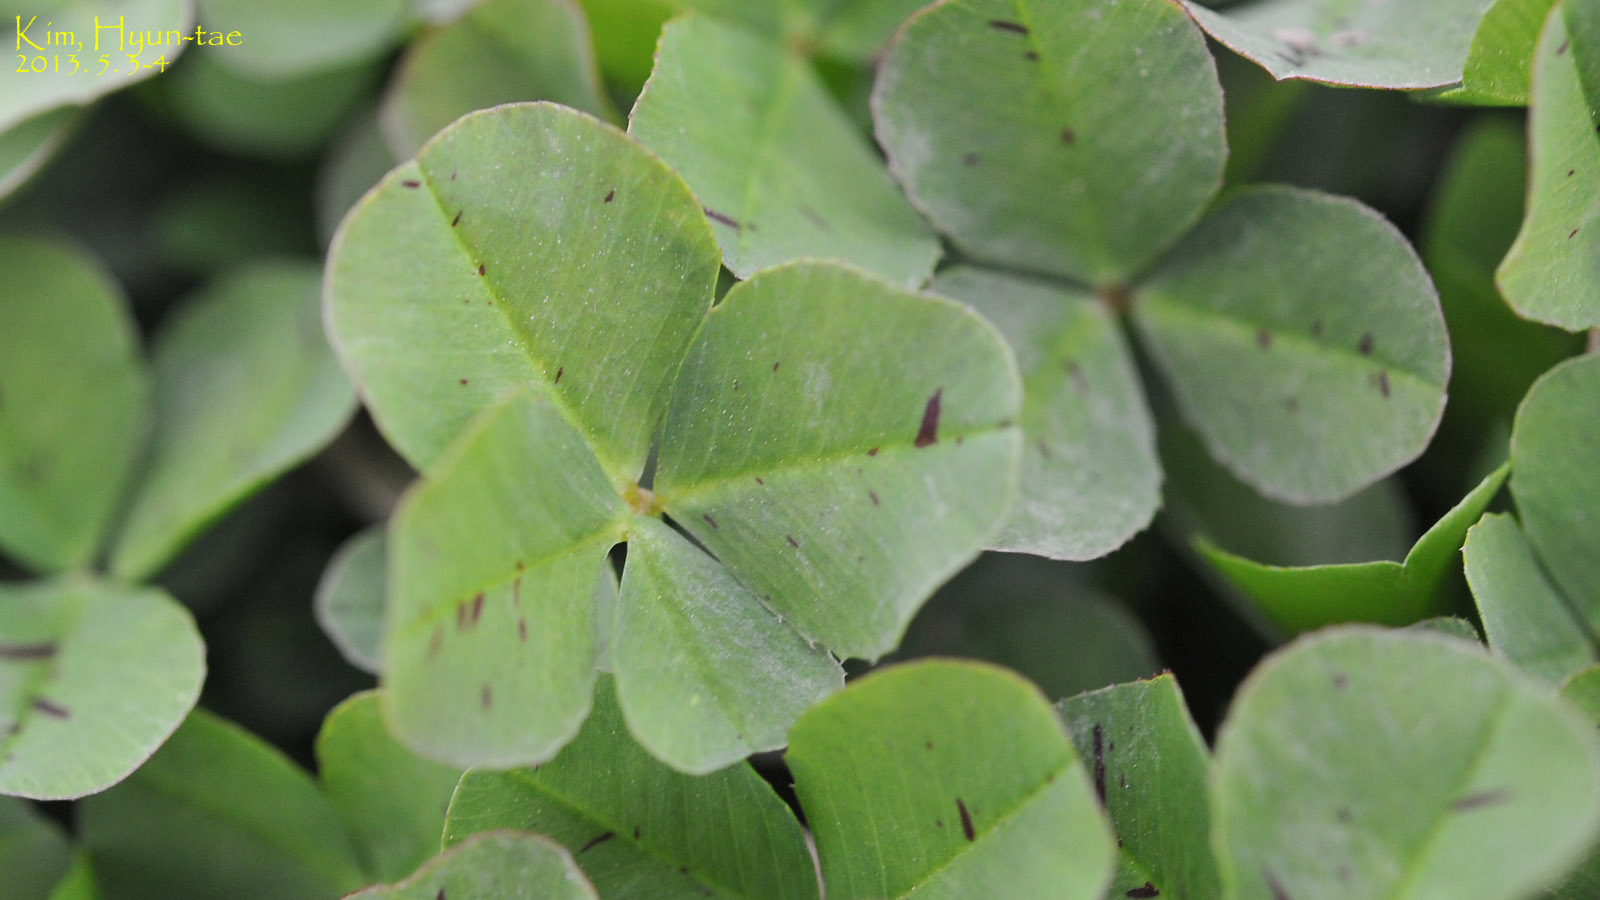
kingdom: Plantae
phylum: Tracheophyta
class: Magnoliopsida
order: Fabales
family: Fabaceae
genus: Trifolium
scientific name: Trifolium repens
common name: White clover
